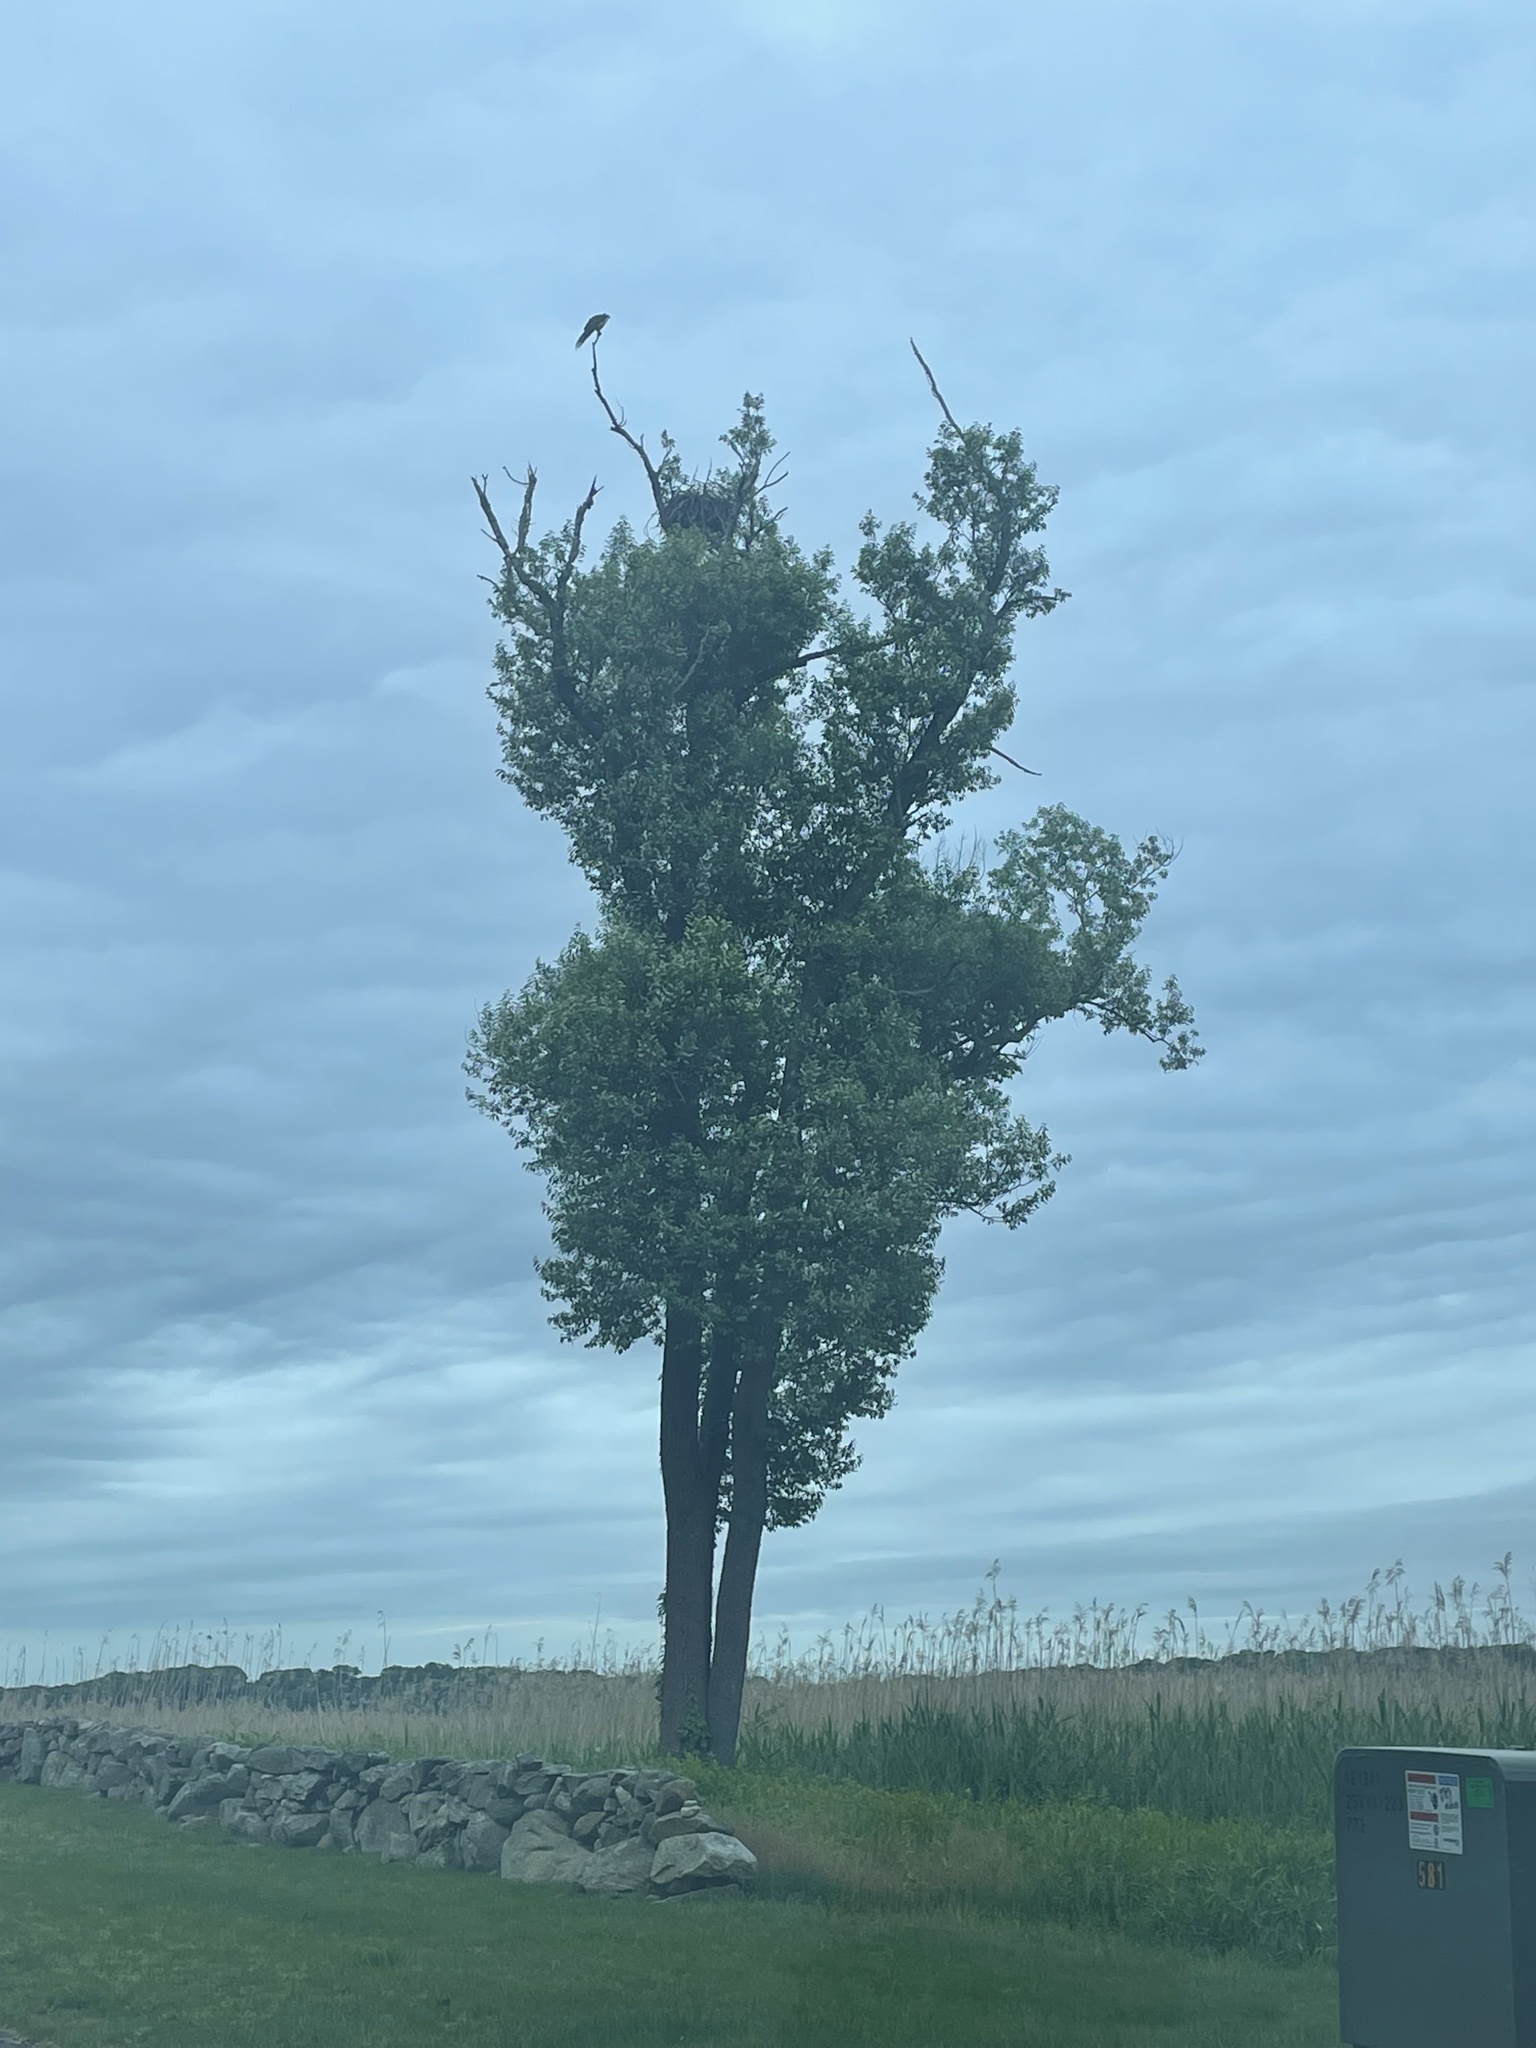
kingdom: Animalia
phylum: Chordata
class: Aves
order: Accipitriformes
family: Pandionidae
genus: Pandion
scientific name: Pandion haliaetus
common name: Osprey
